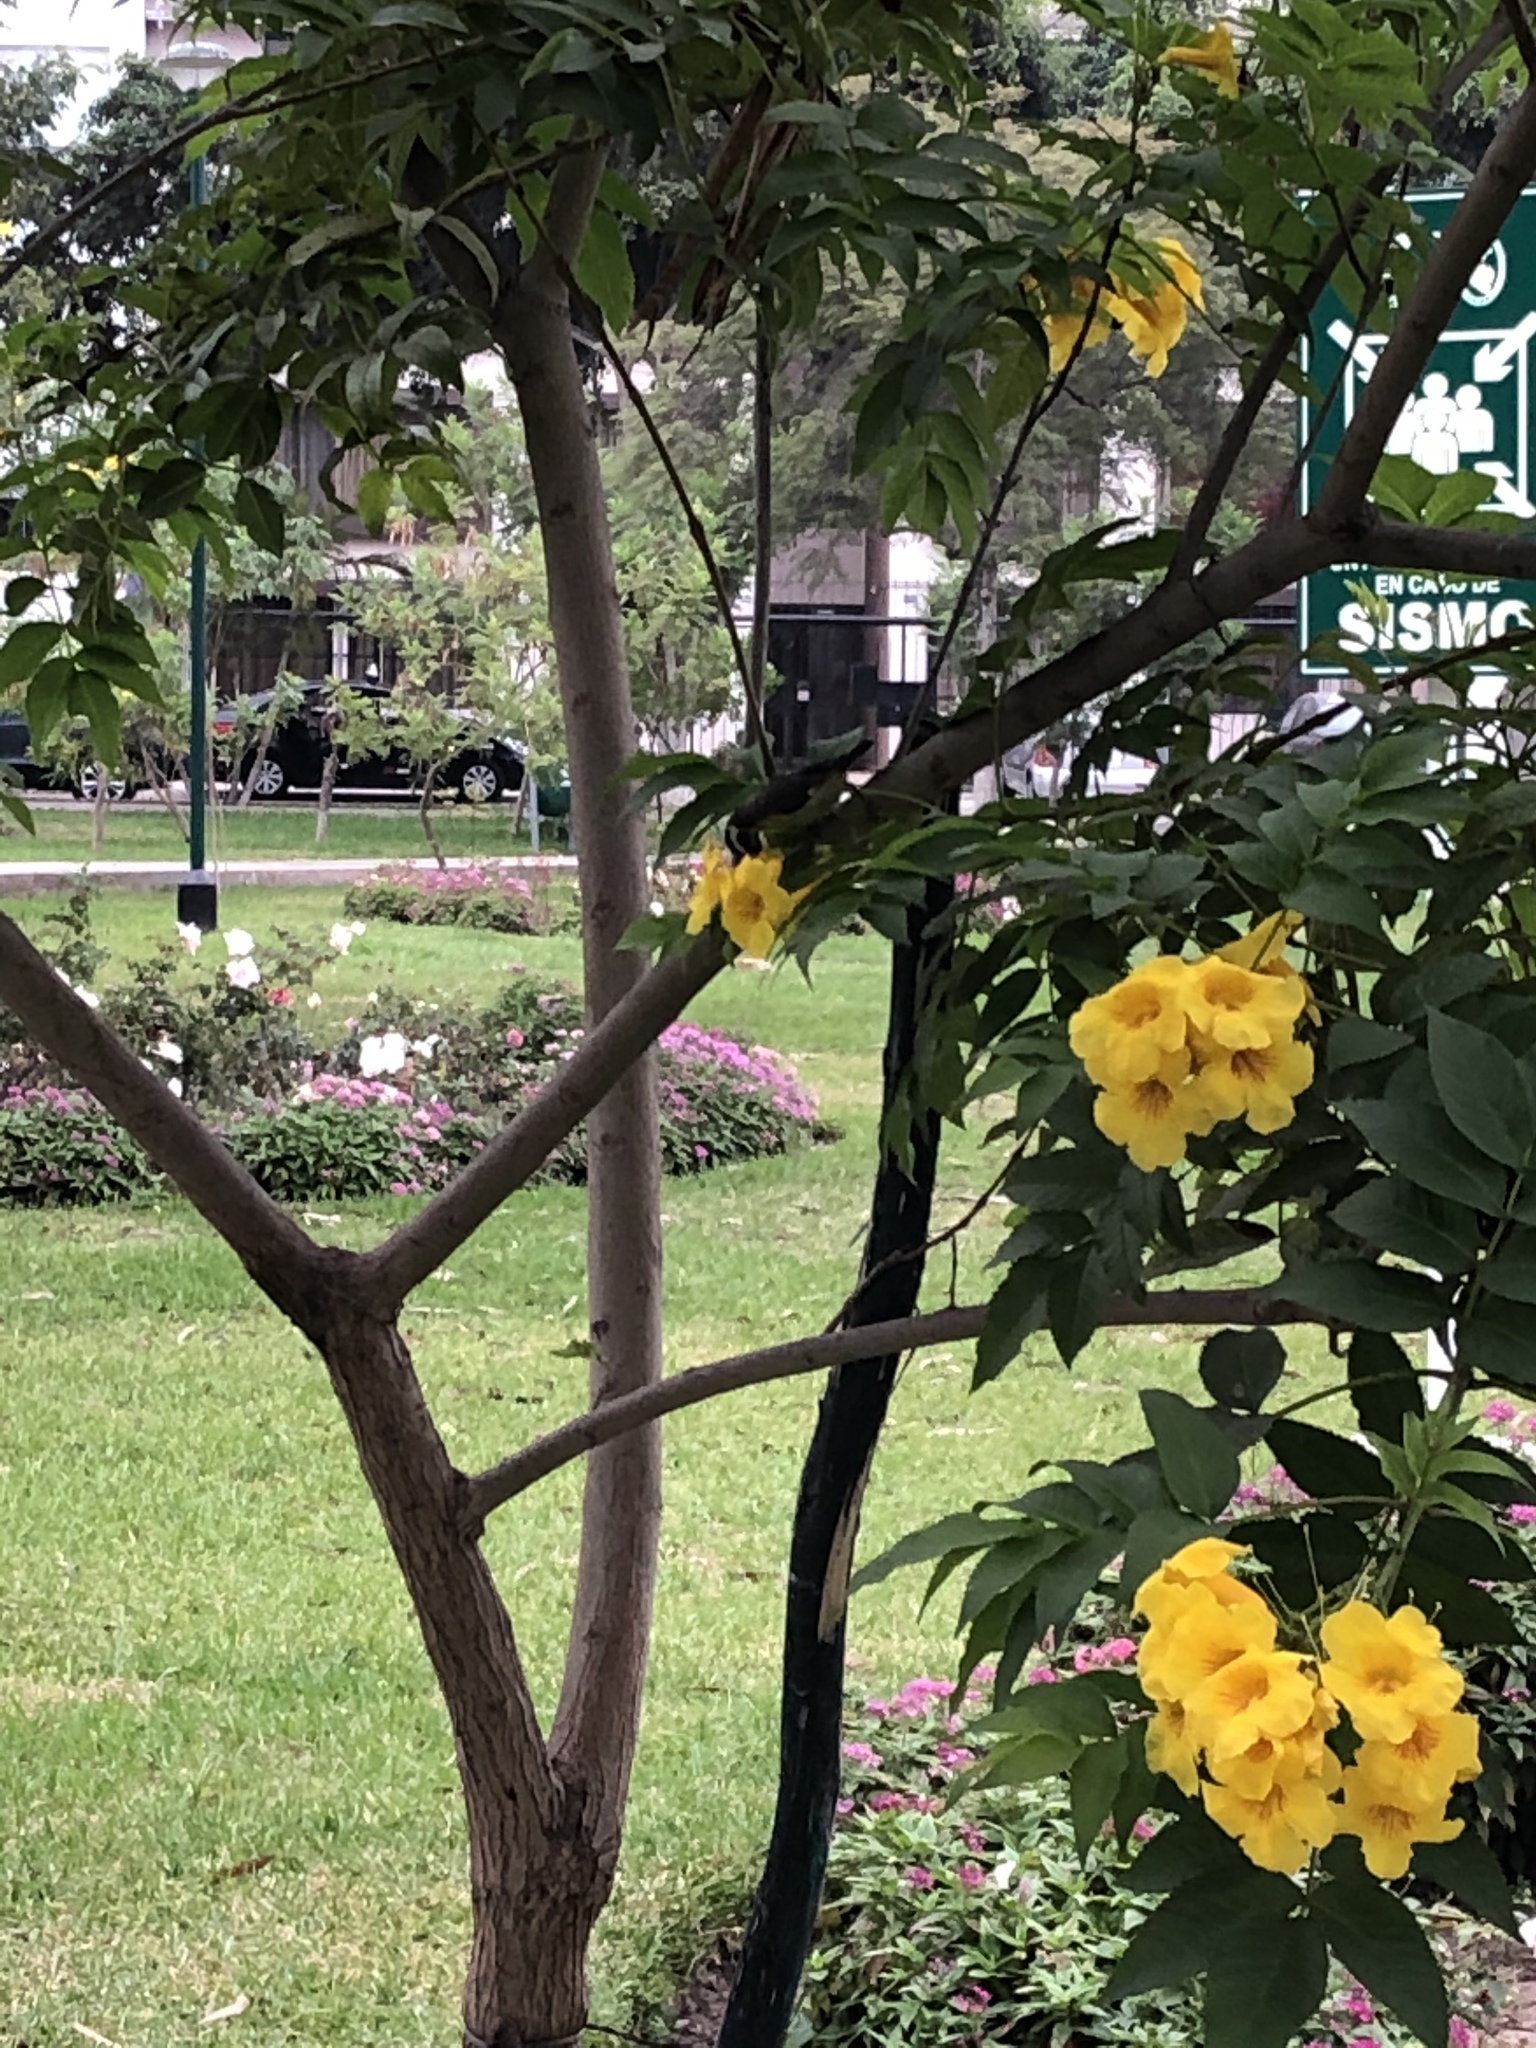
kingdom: Animalia
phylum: Chordata
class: Aves
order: Passeriformes
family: Thraupidae
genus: Coereba
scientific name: Coereba flaveola
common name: Bananaquit
